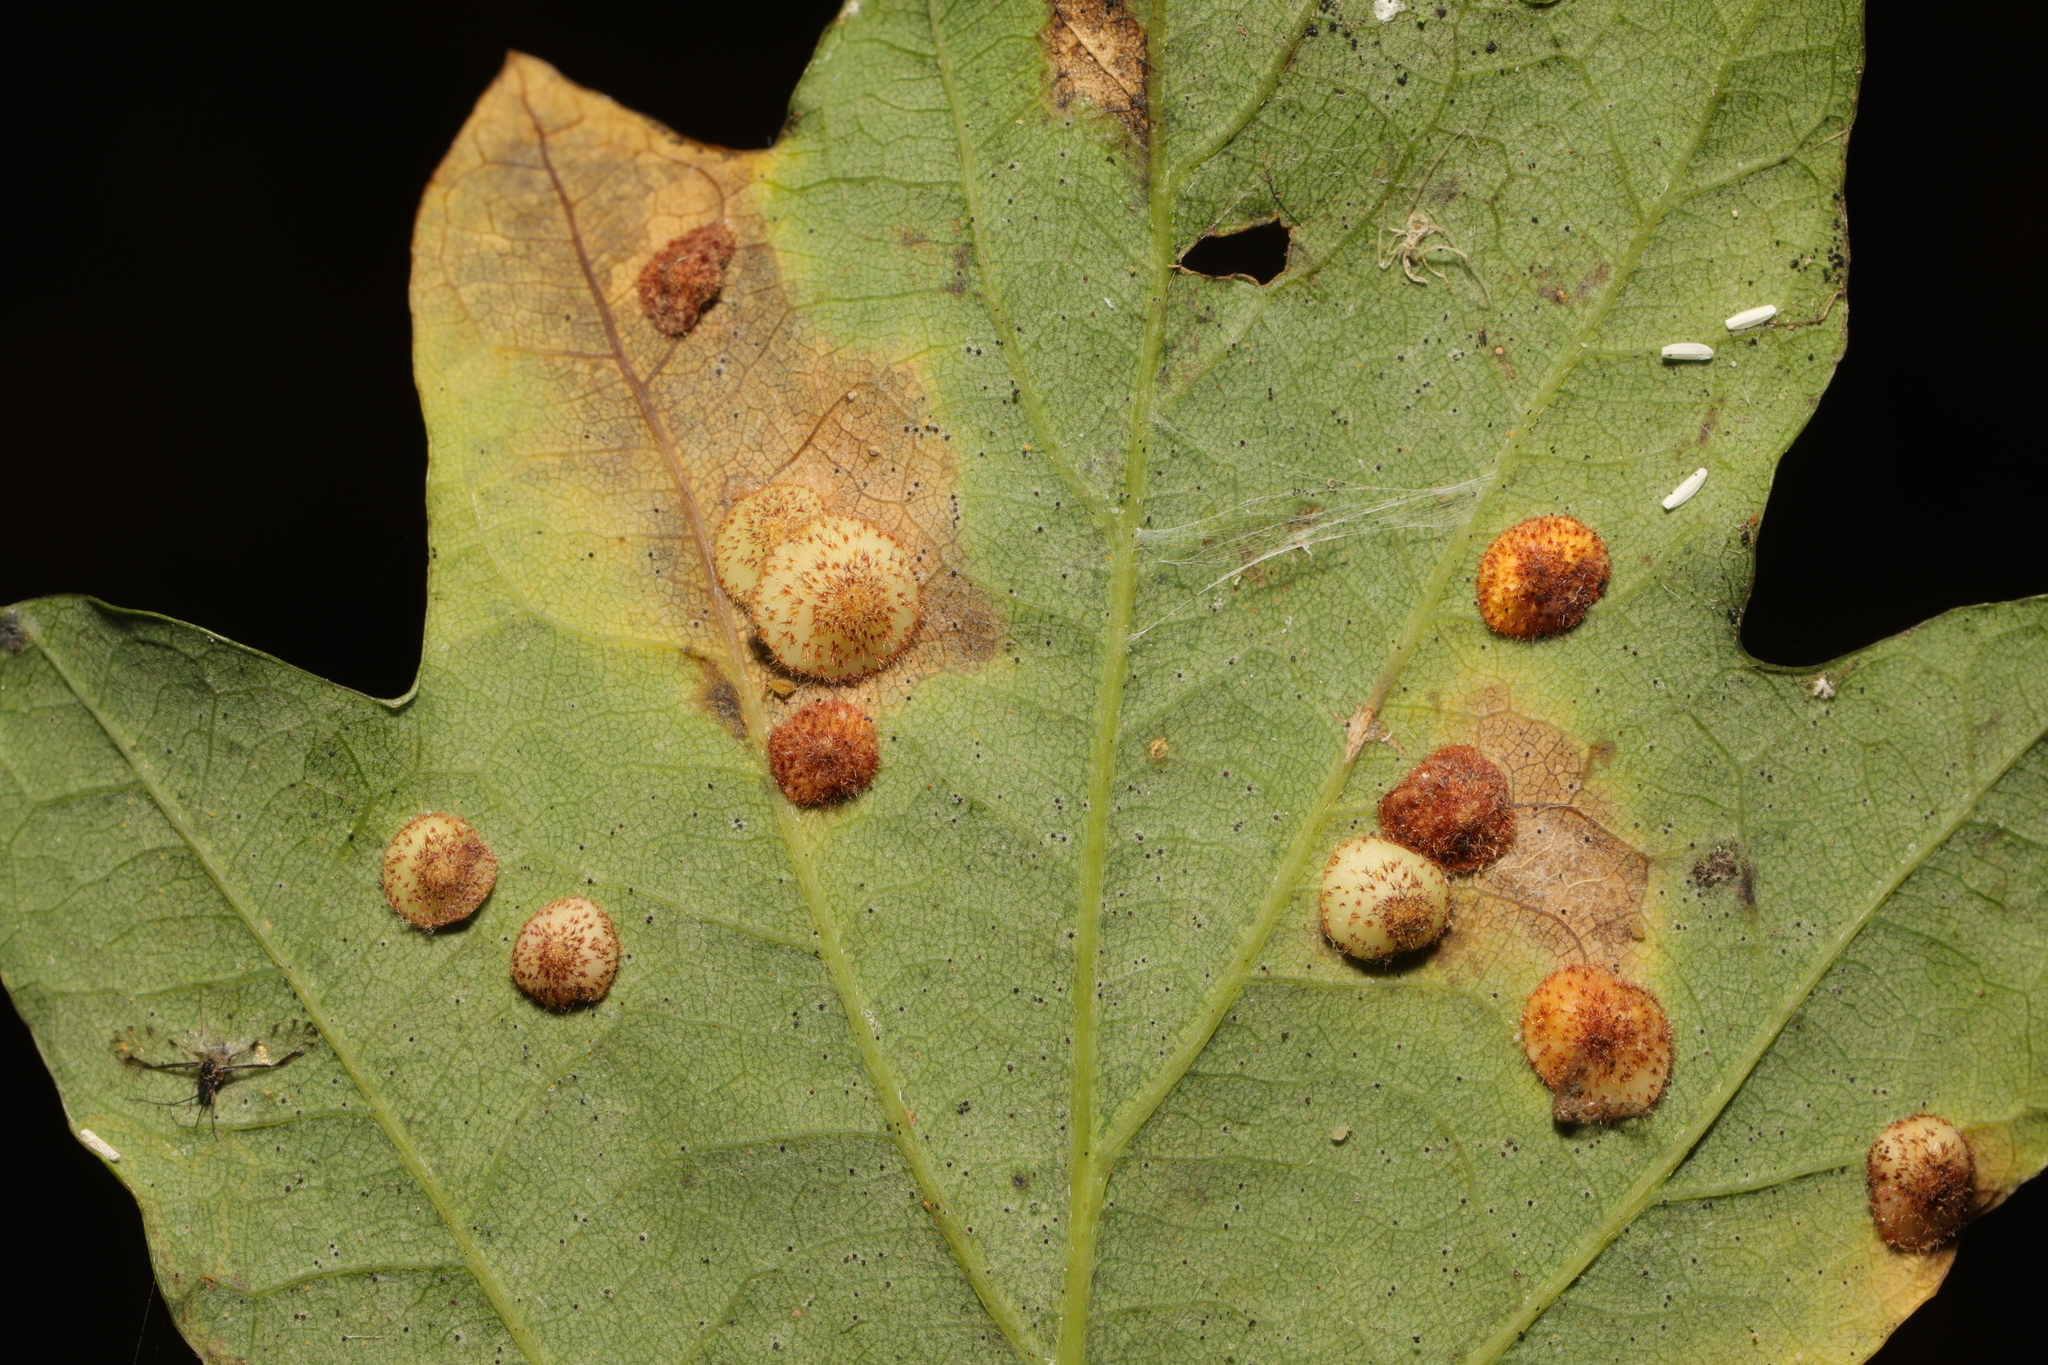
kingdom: Animalia
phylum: Arthropoda
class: Insecta
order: Hymenoptera
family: Cynipidae
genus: Neuroterus
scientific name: Neuroterus quercusbaccarum
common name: Common spangle gall
